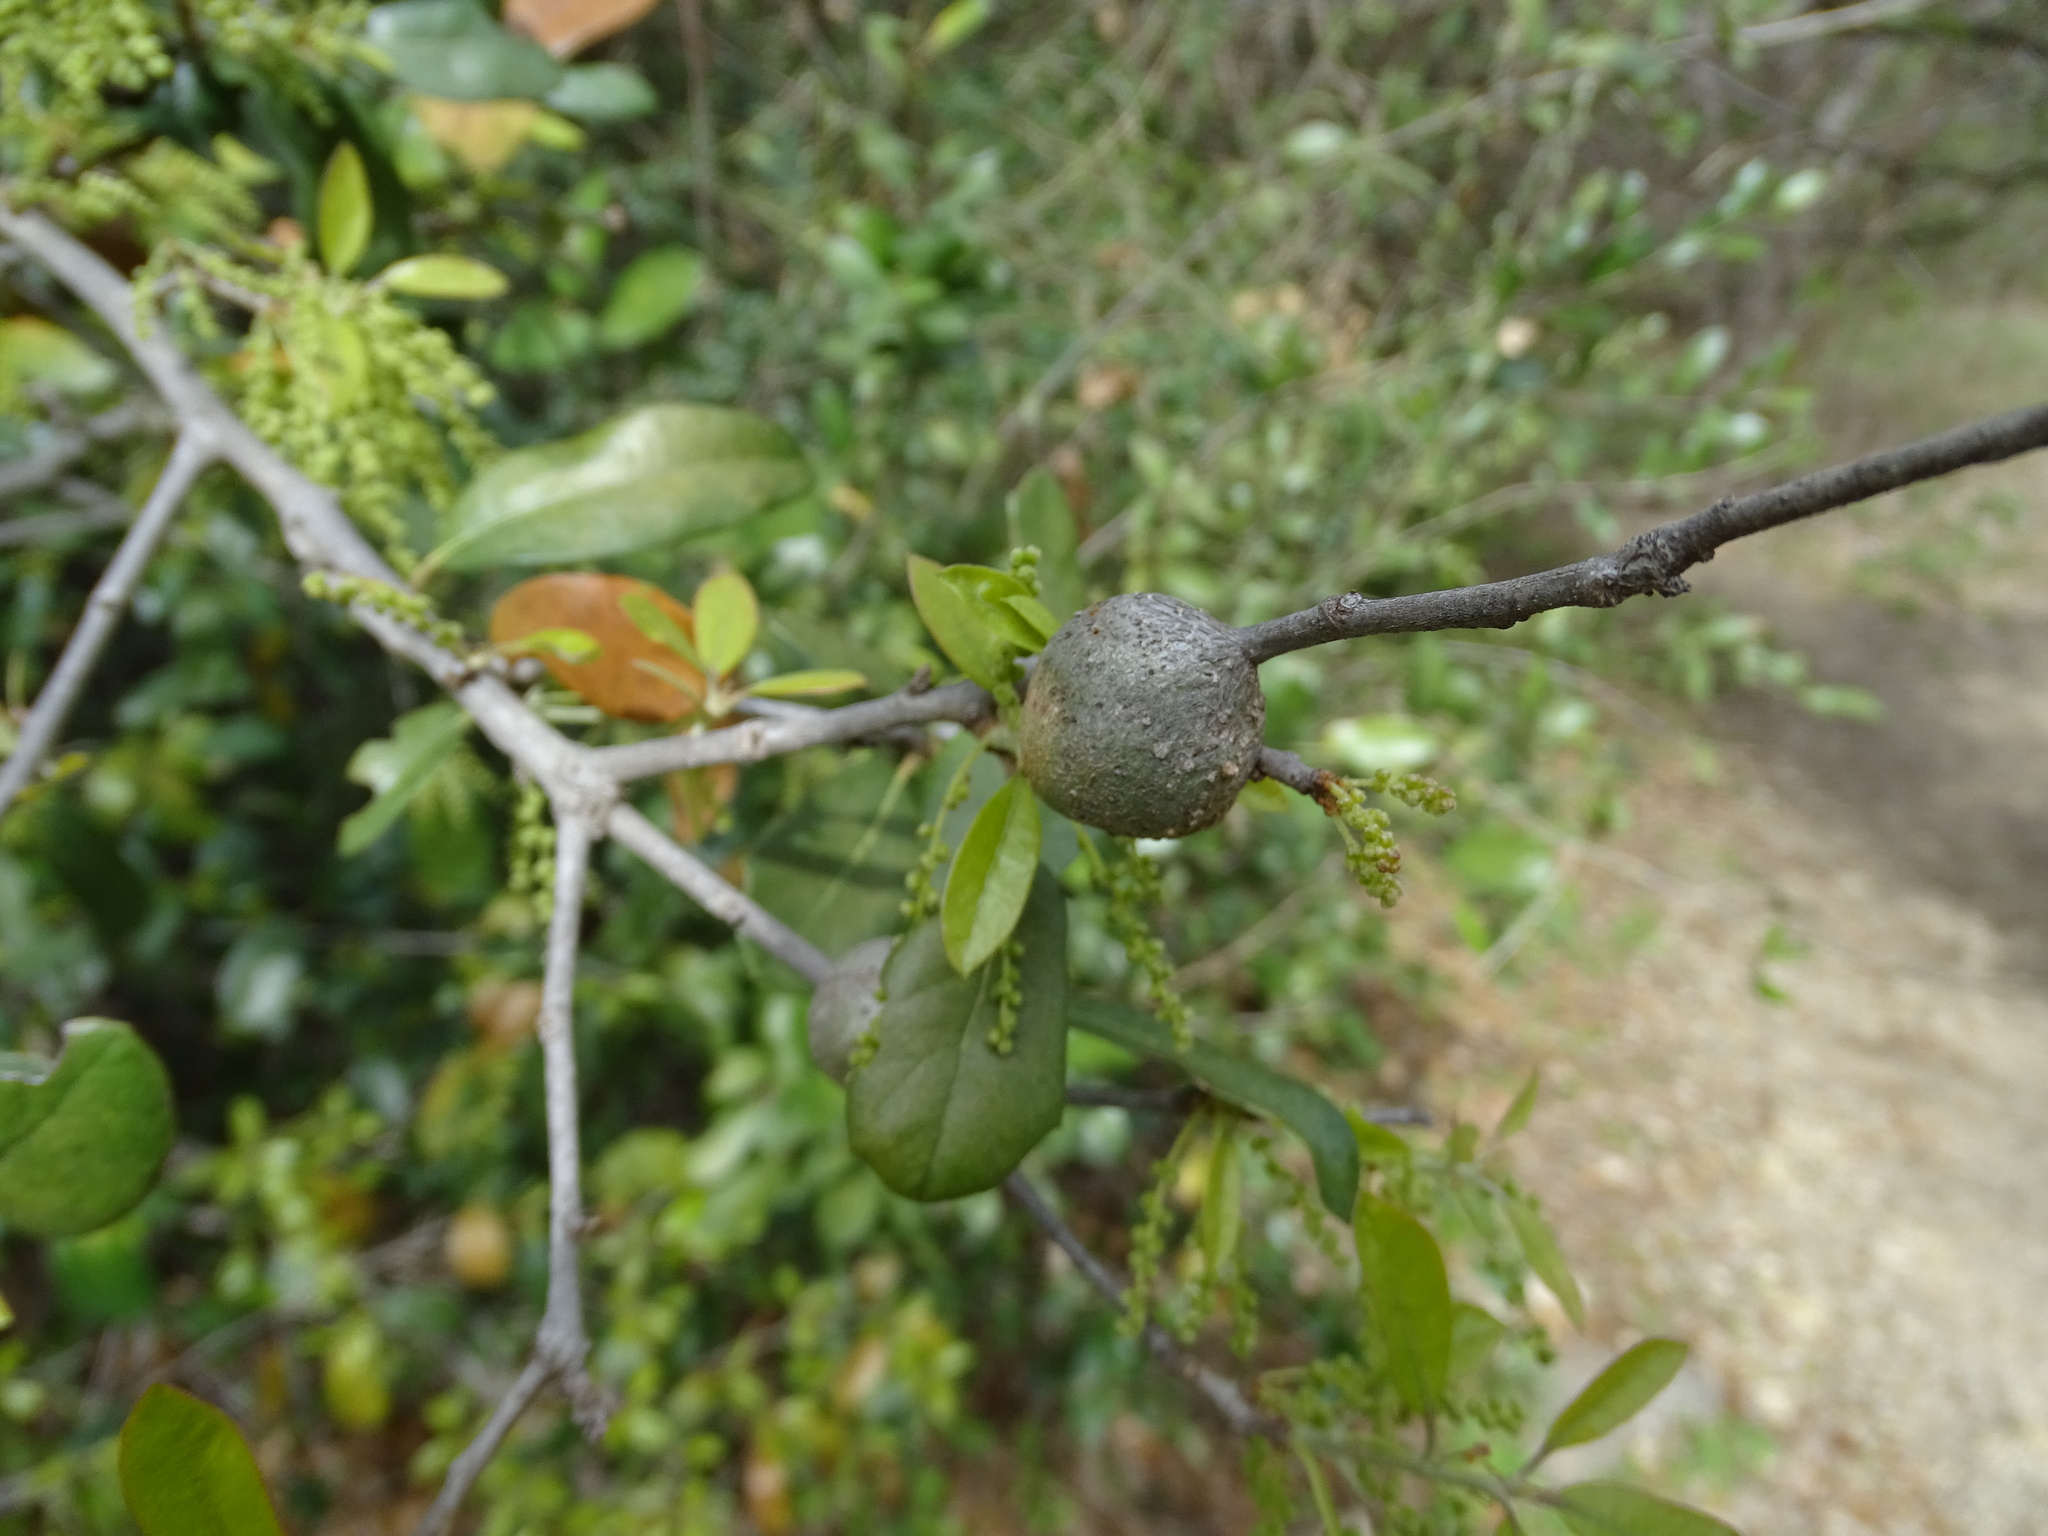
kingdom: Animalia
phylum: Arthropoda
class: Insecta
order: Hymenoptera
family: Cynipidae
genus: Callirhytis
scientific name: Callirhytis
